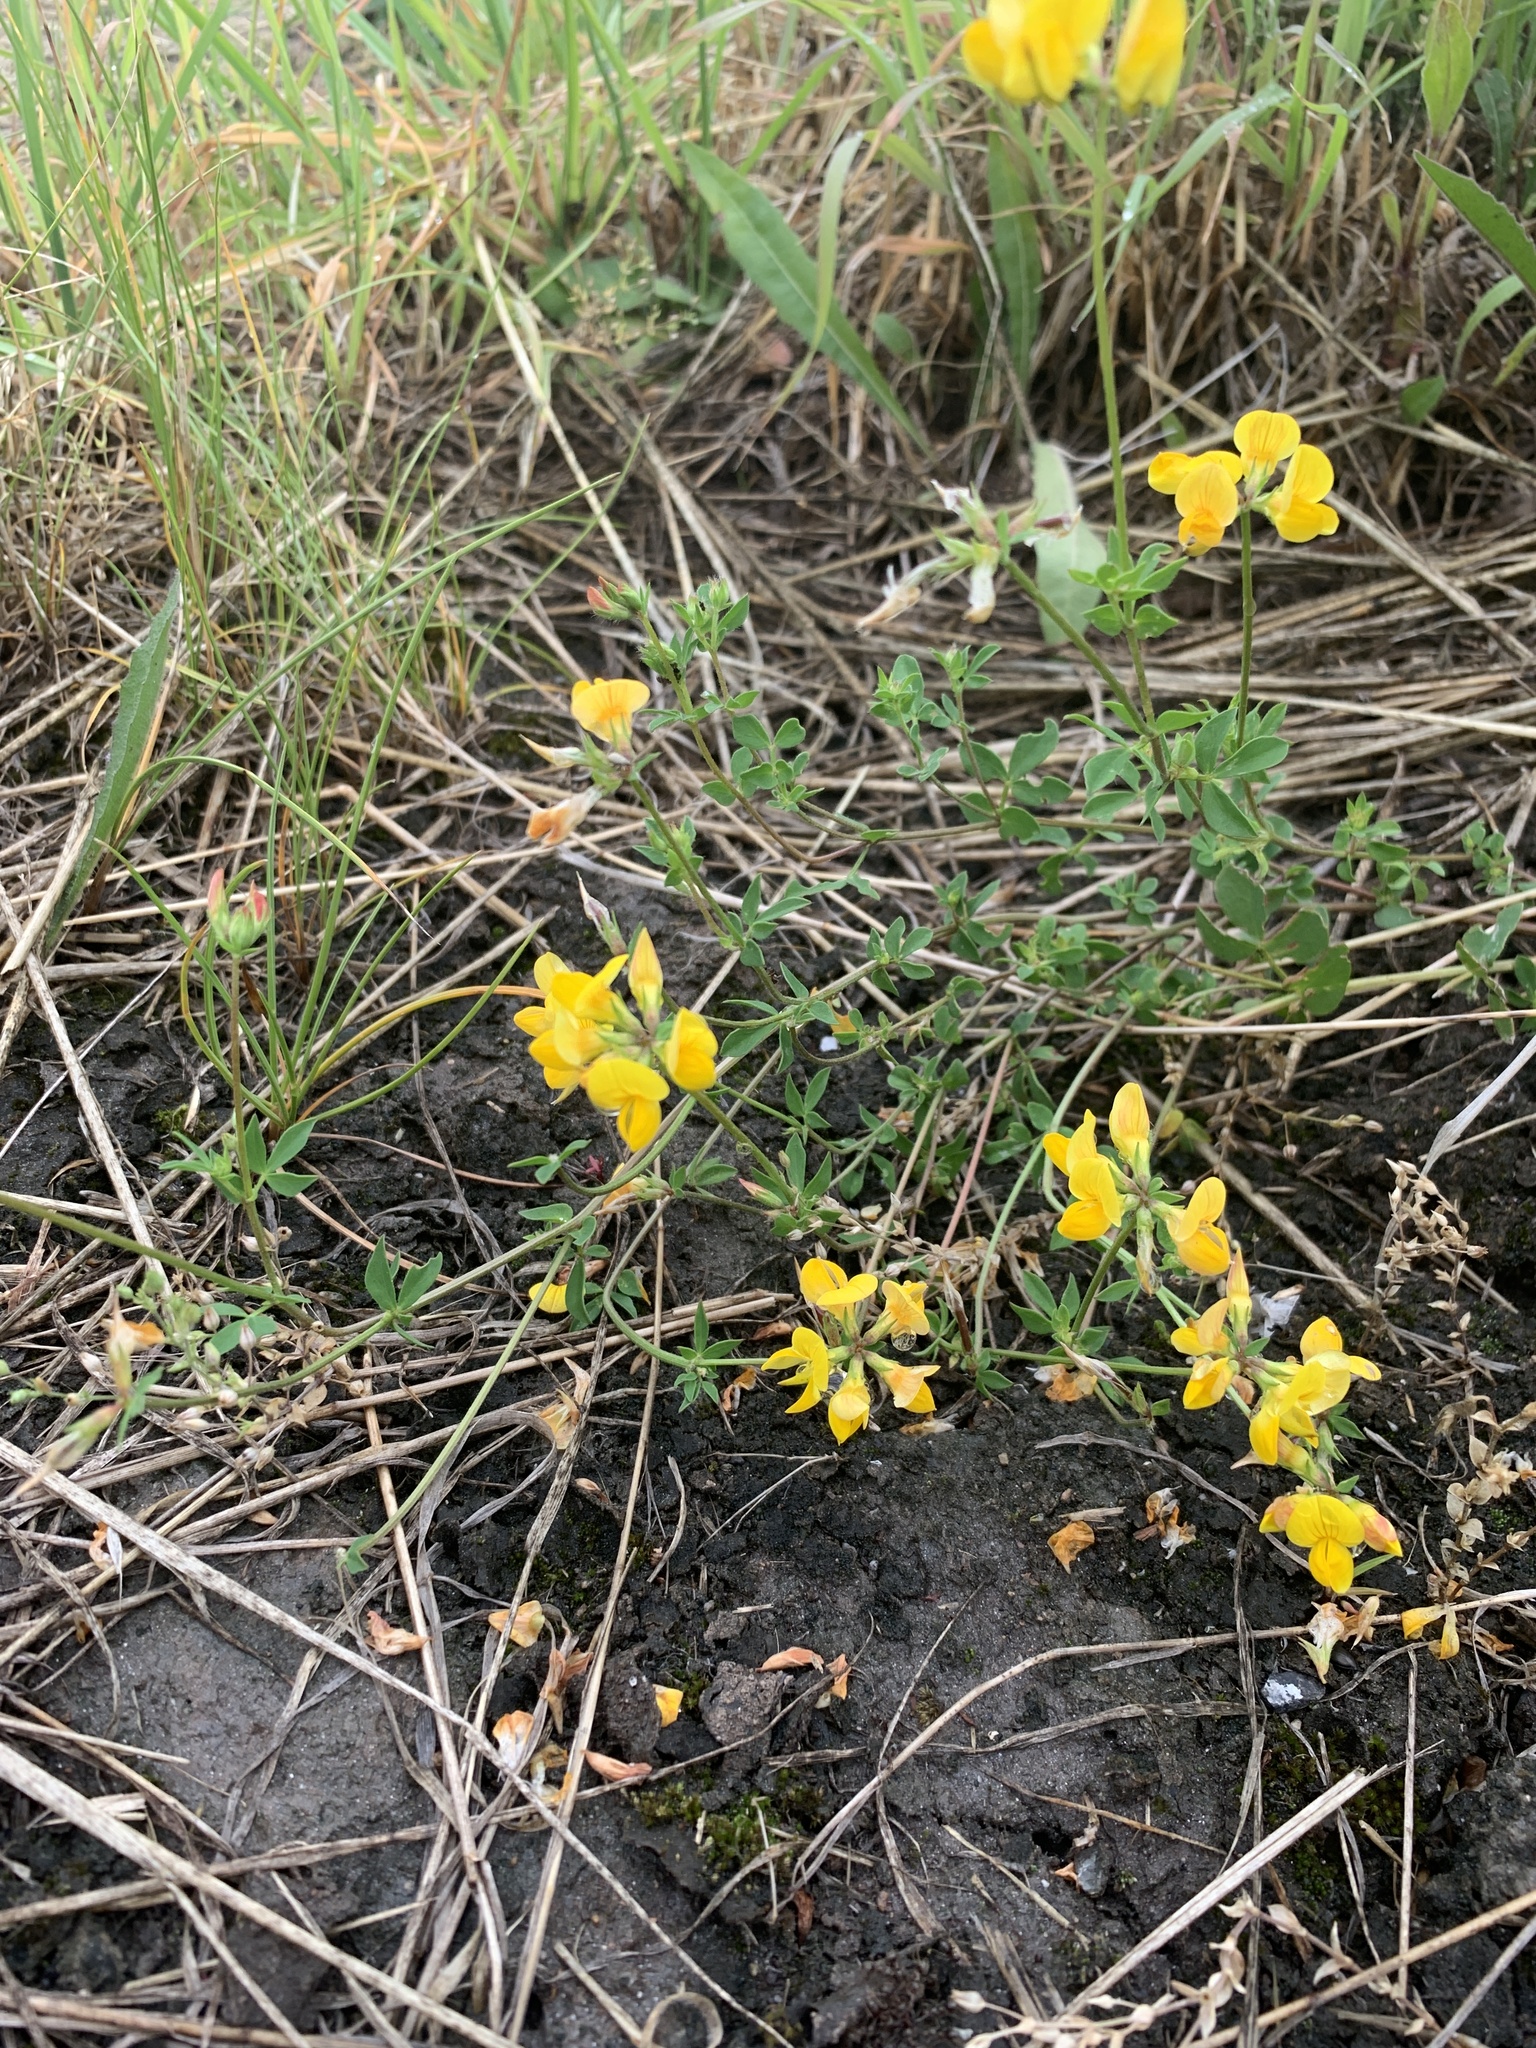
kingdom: Plantae
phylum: Tracheophyta
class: Magnoliopsida
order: Fabales
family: Fabaceae
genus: Lotus
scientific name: Lotus corniculatus
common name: Common bird's-foot-trefoil
